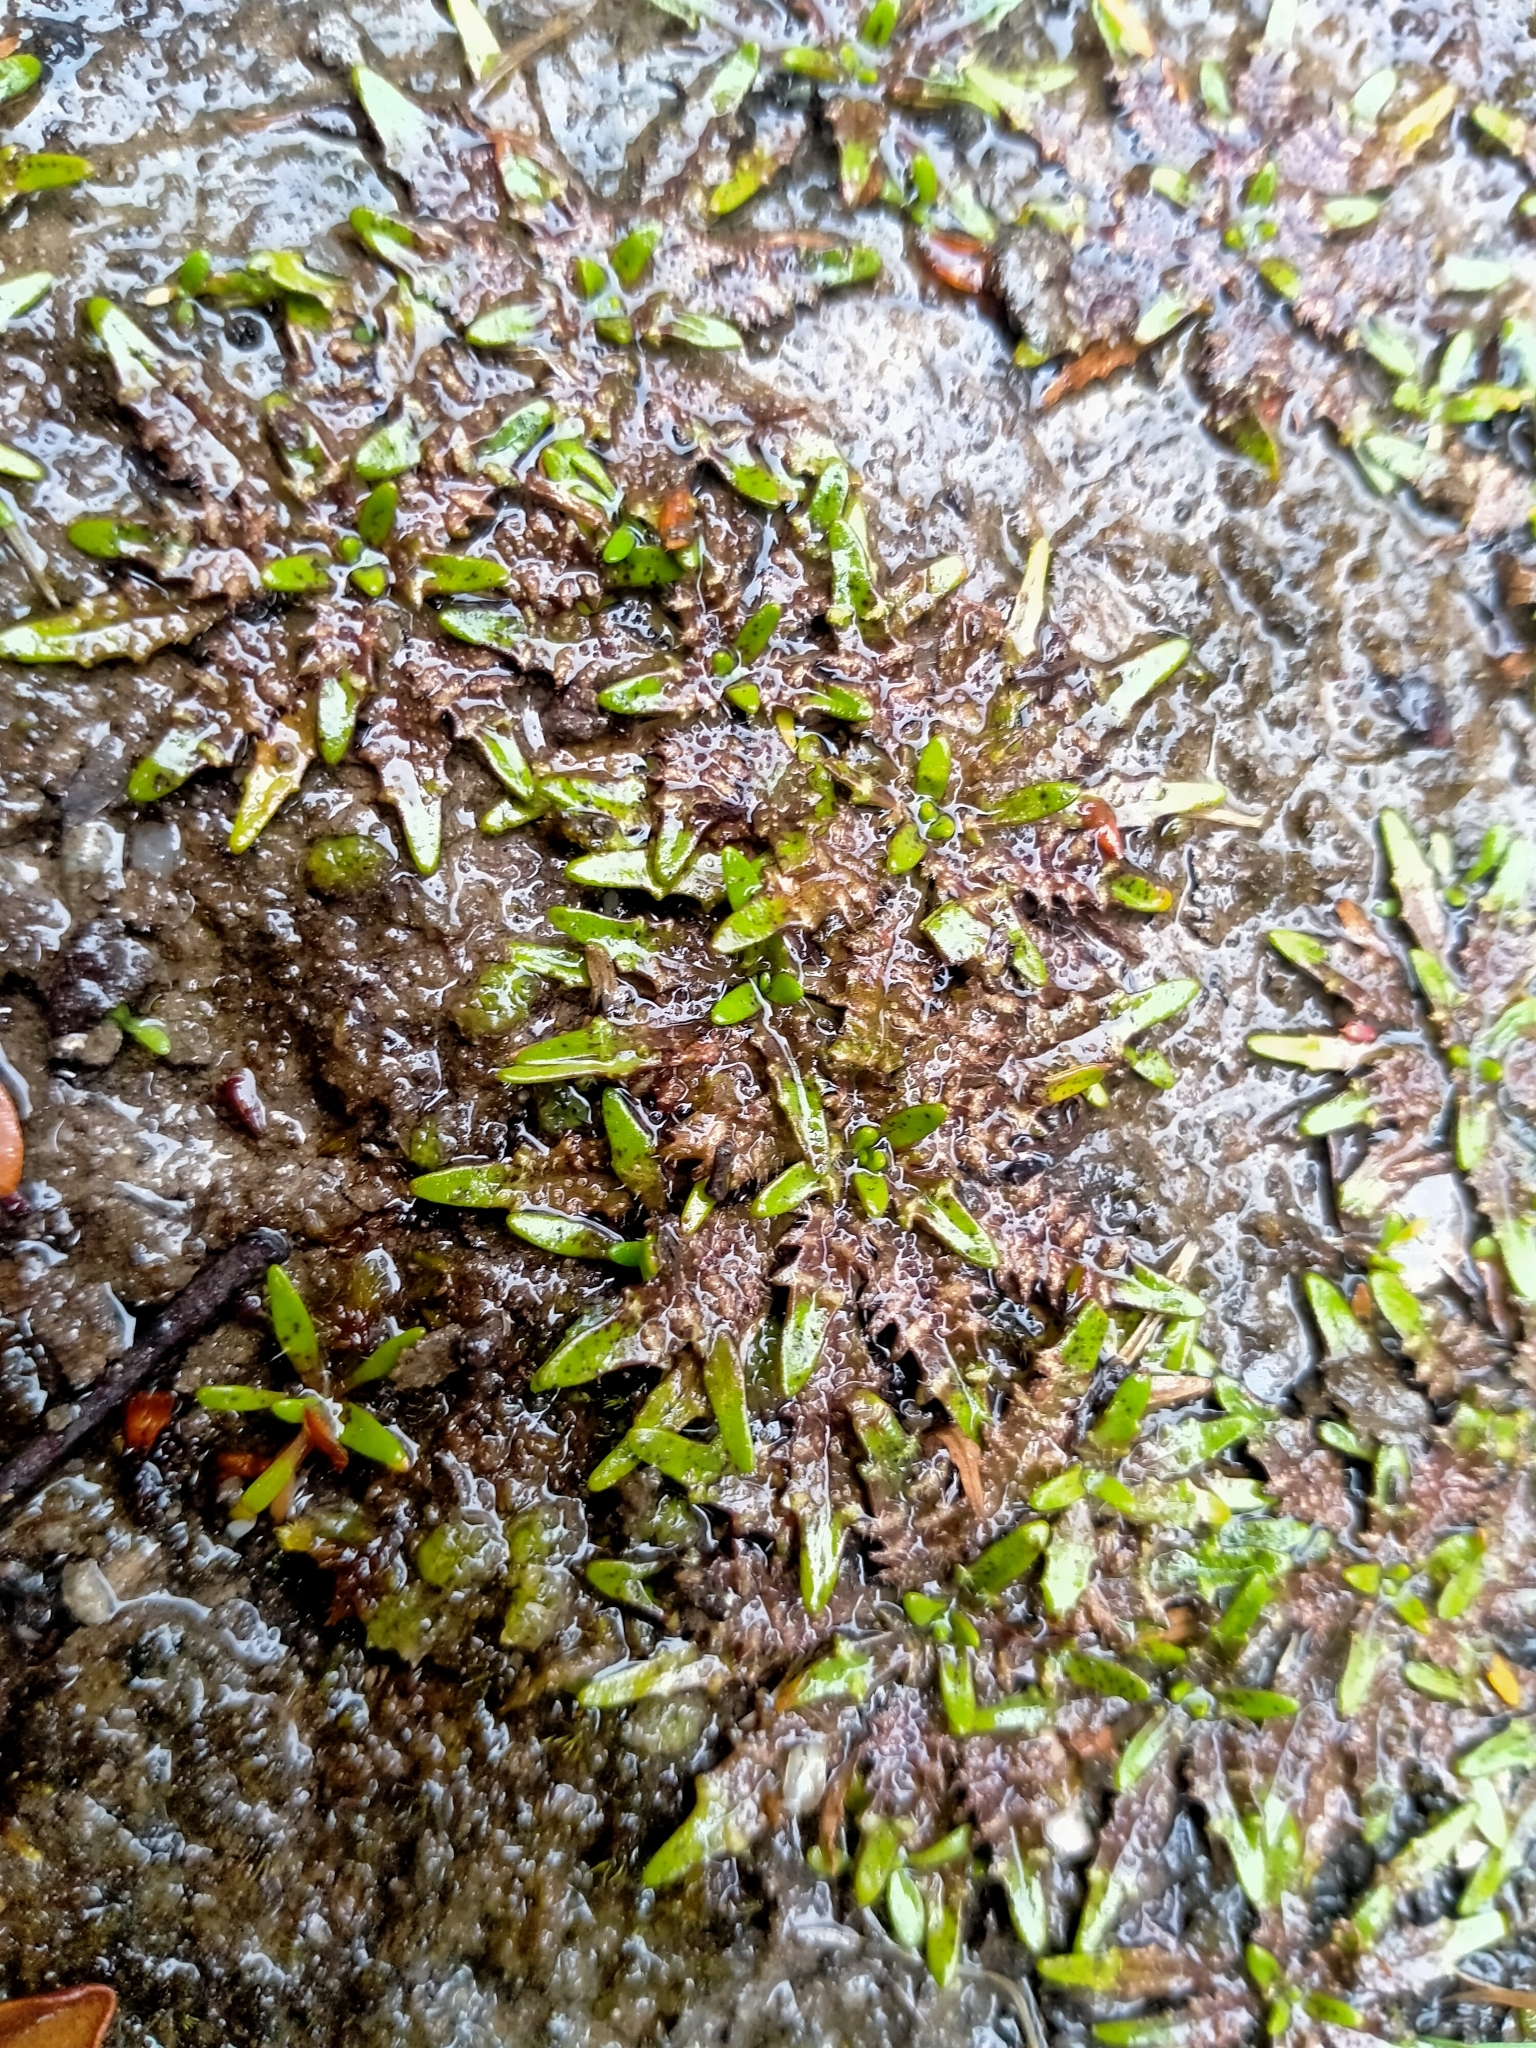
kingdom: Plantae
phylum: Tracheophyta
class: Magnoliopsida
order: Lamiales
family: Plantaginaceae
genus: Plantago
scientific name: Plantago triandra
